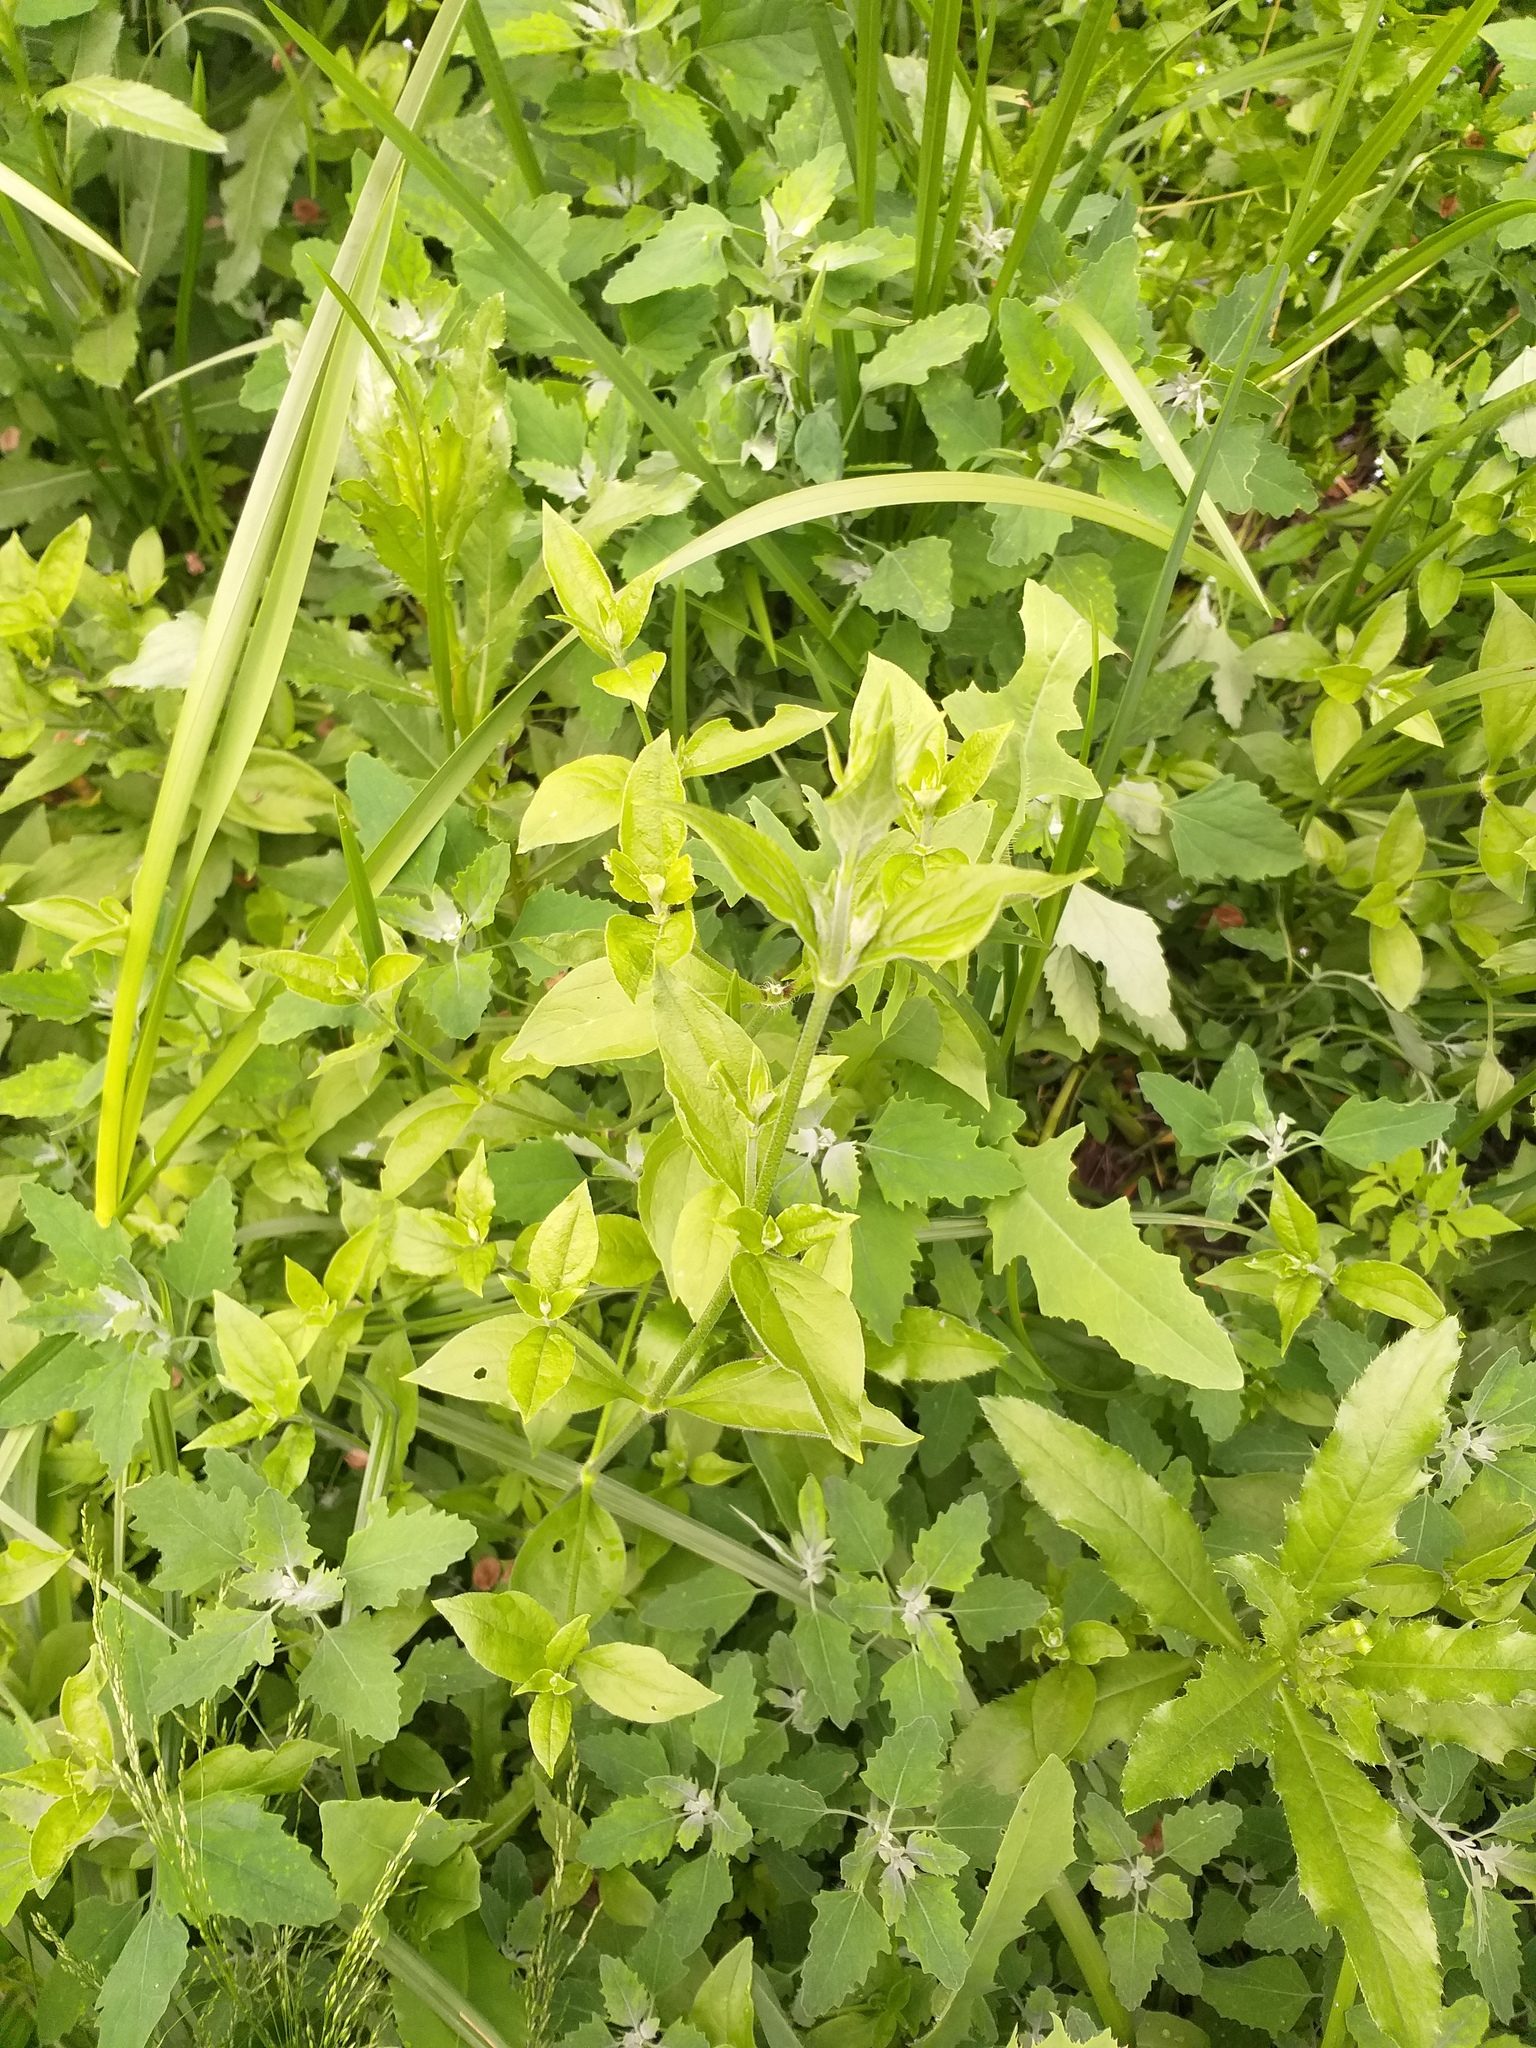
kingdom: Plantae
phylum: Tracheophyta
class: Magnoliopsida
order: Caryophyllales
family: Caryophyllaceae
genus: Silene
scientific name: Silene baccifera
